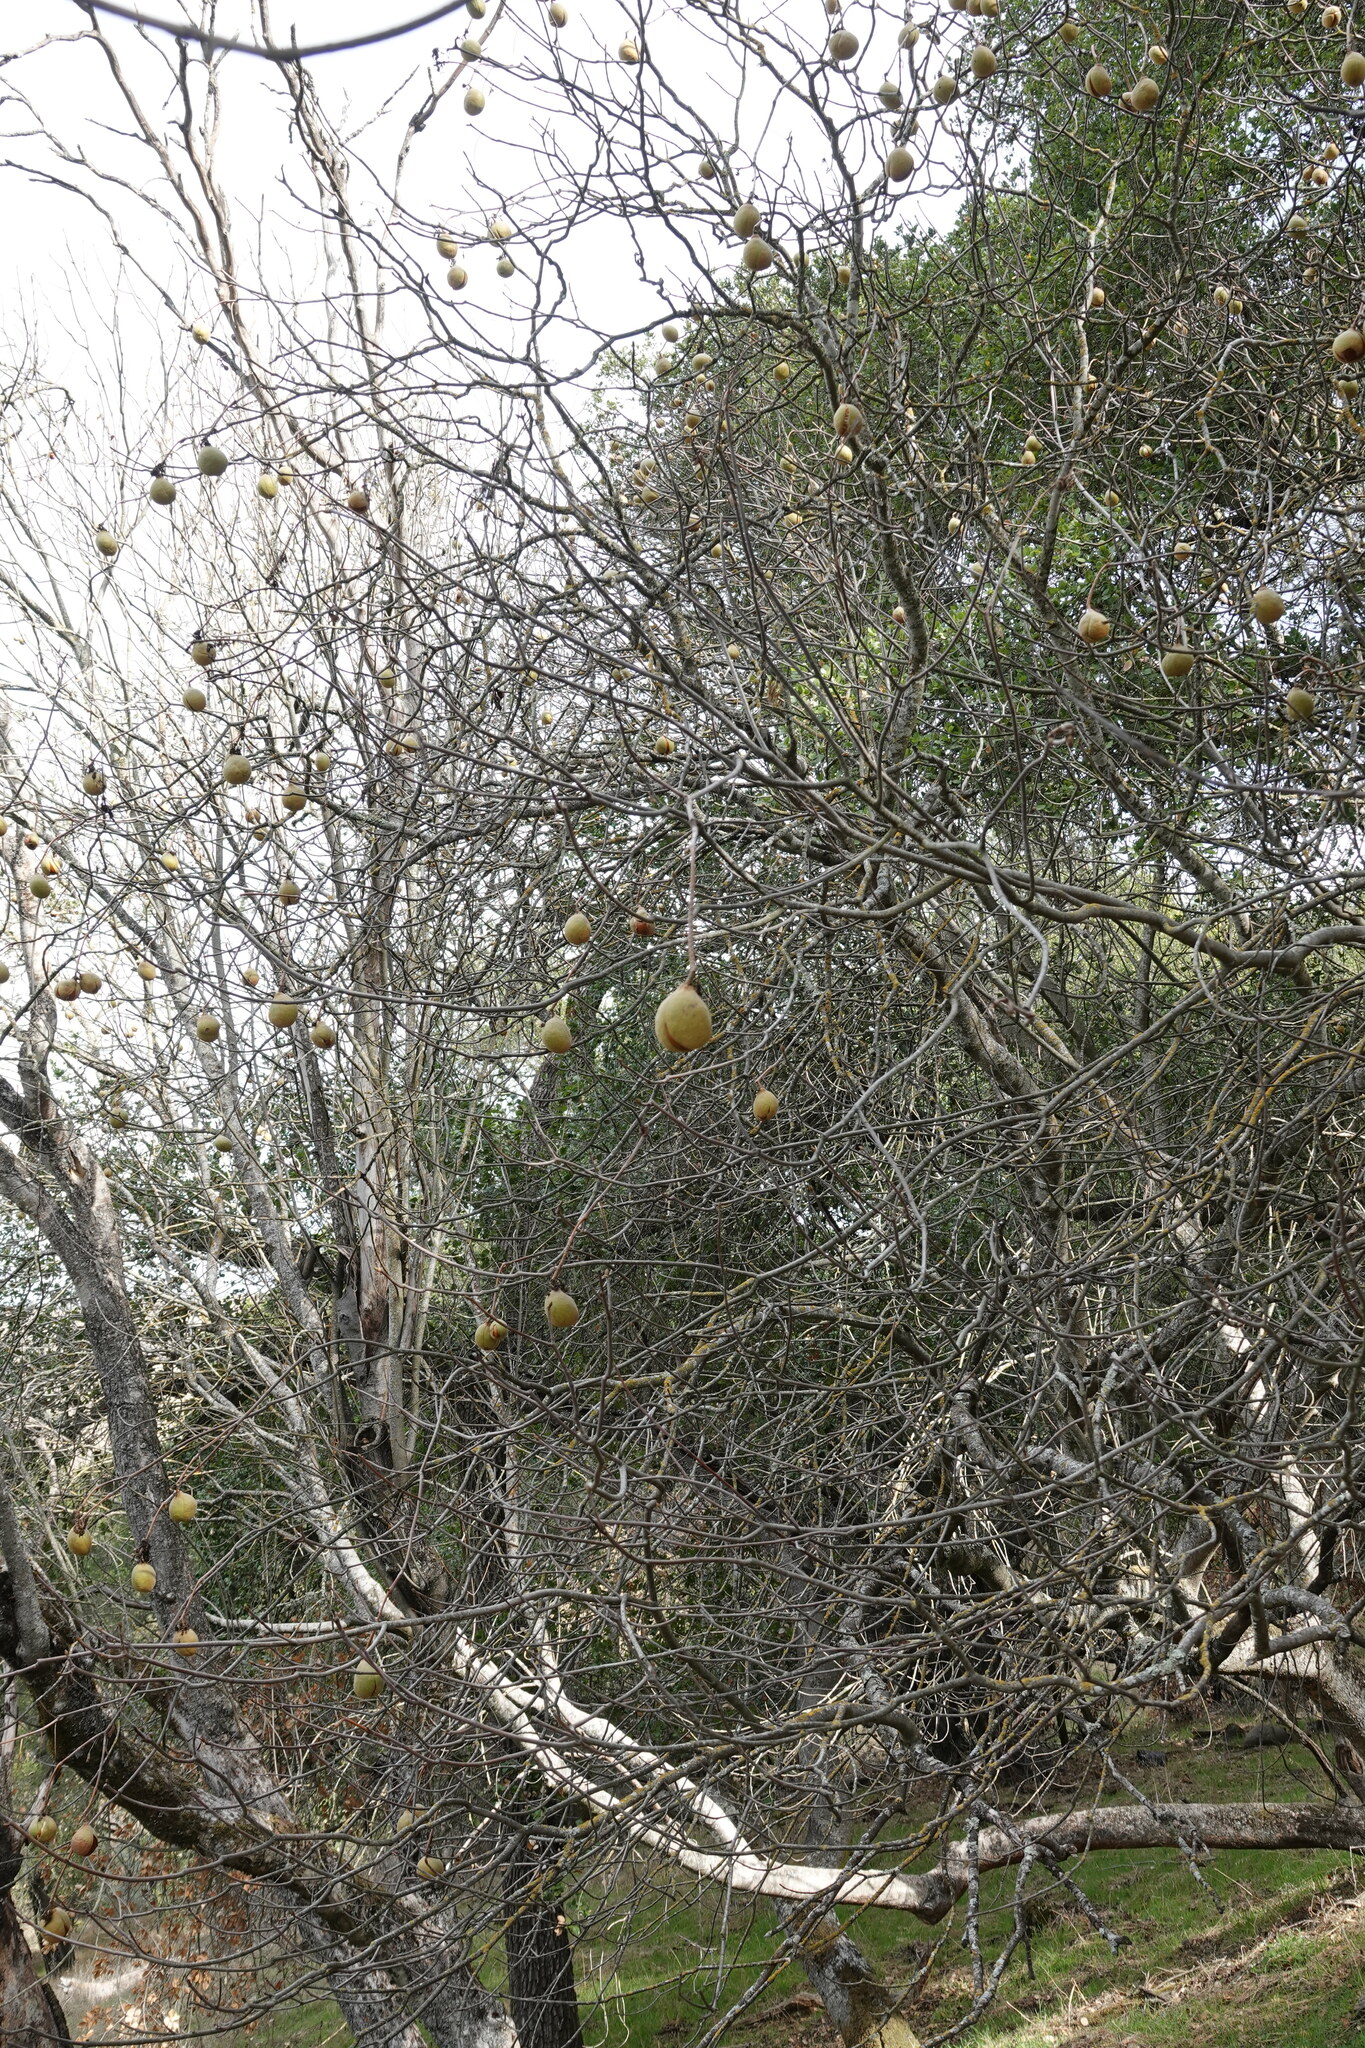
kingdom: Plantae
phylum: Tracheophyta
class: Magnoliopsida
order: Sapindales
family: Sapindaceae
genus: Aesculus
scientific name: Aesculus californica
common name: California buckeye
